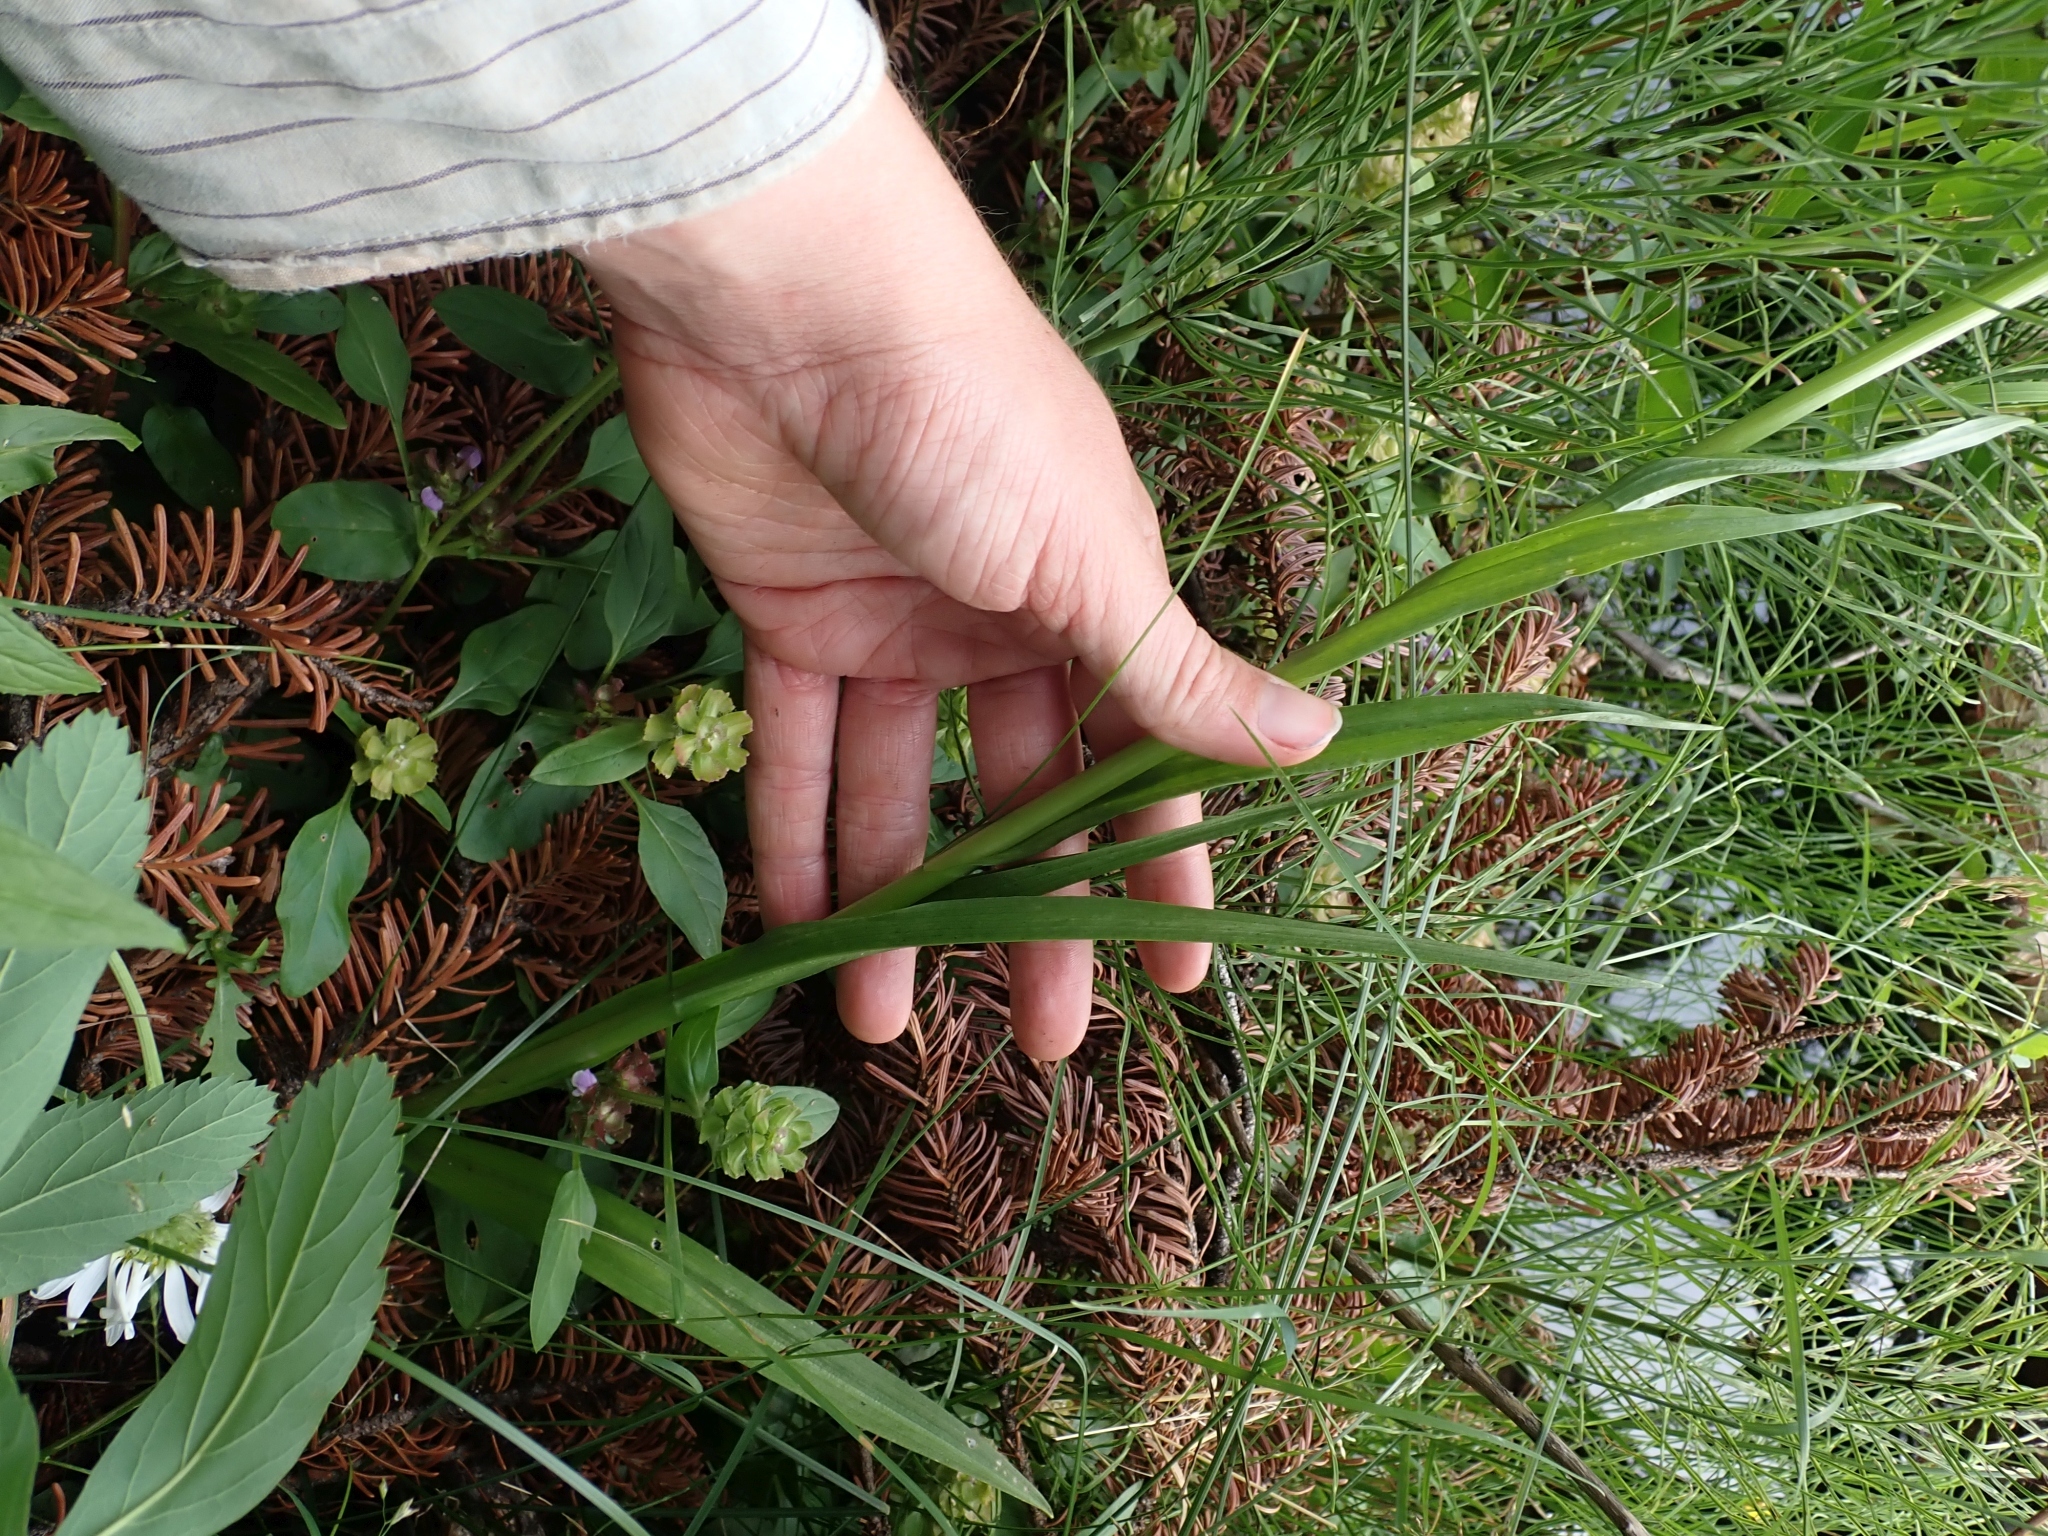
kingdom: Plantae
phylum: Tracheophyta
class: Liliopsida
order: Asparagales
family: Orchidaceae
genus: Platanthera
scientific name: Platanthera dilatata
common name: Bog candles
